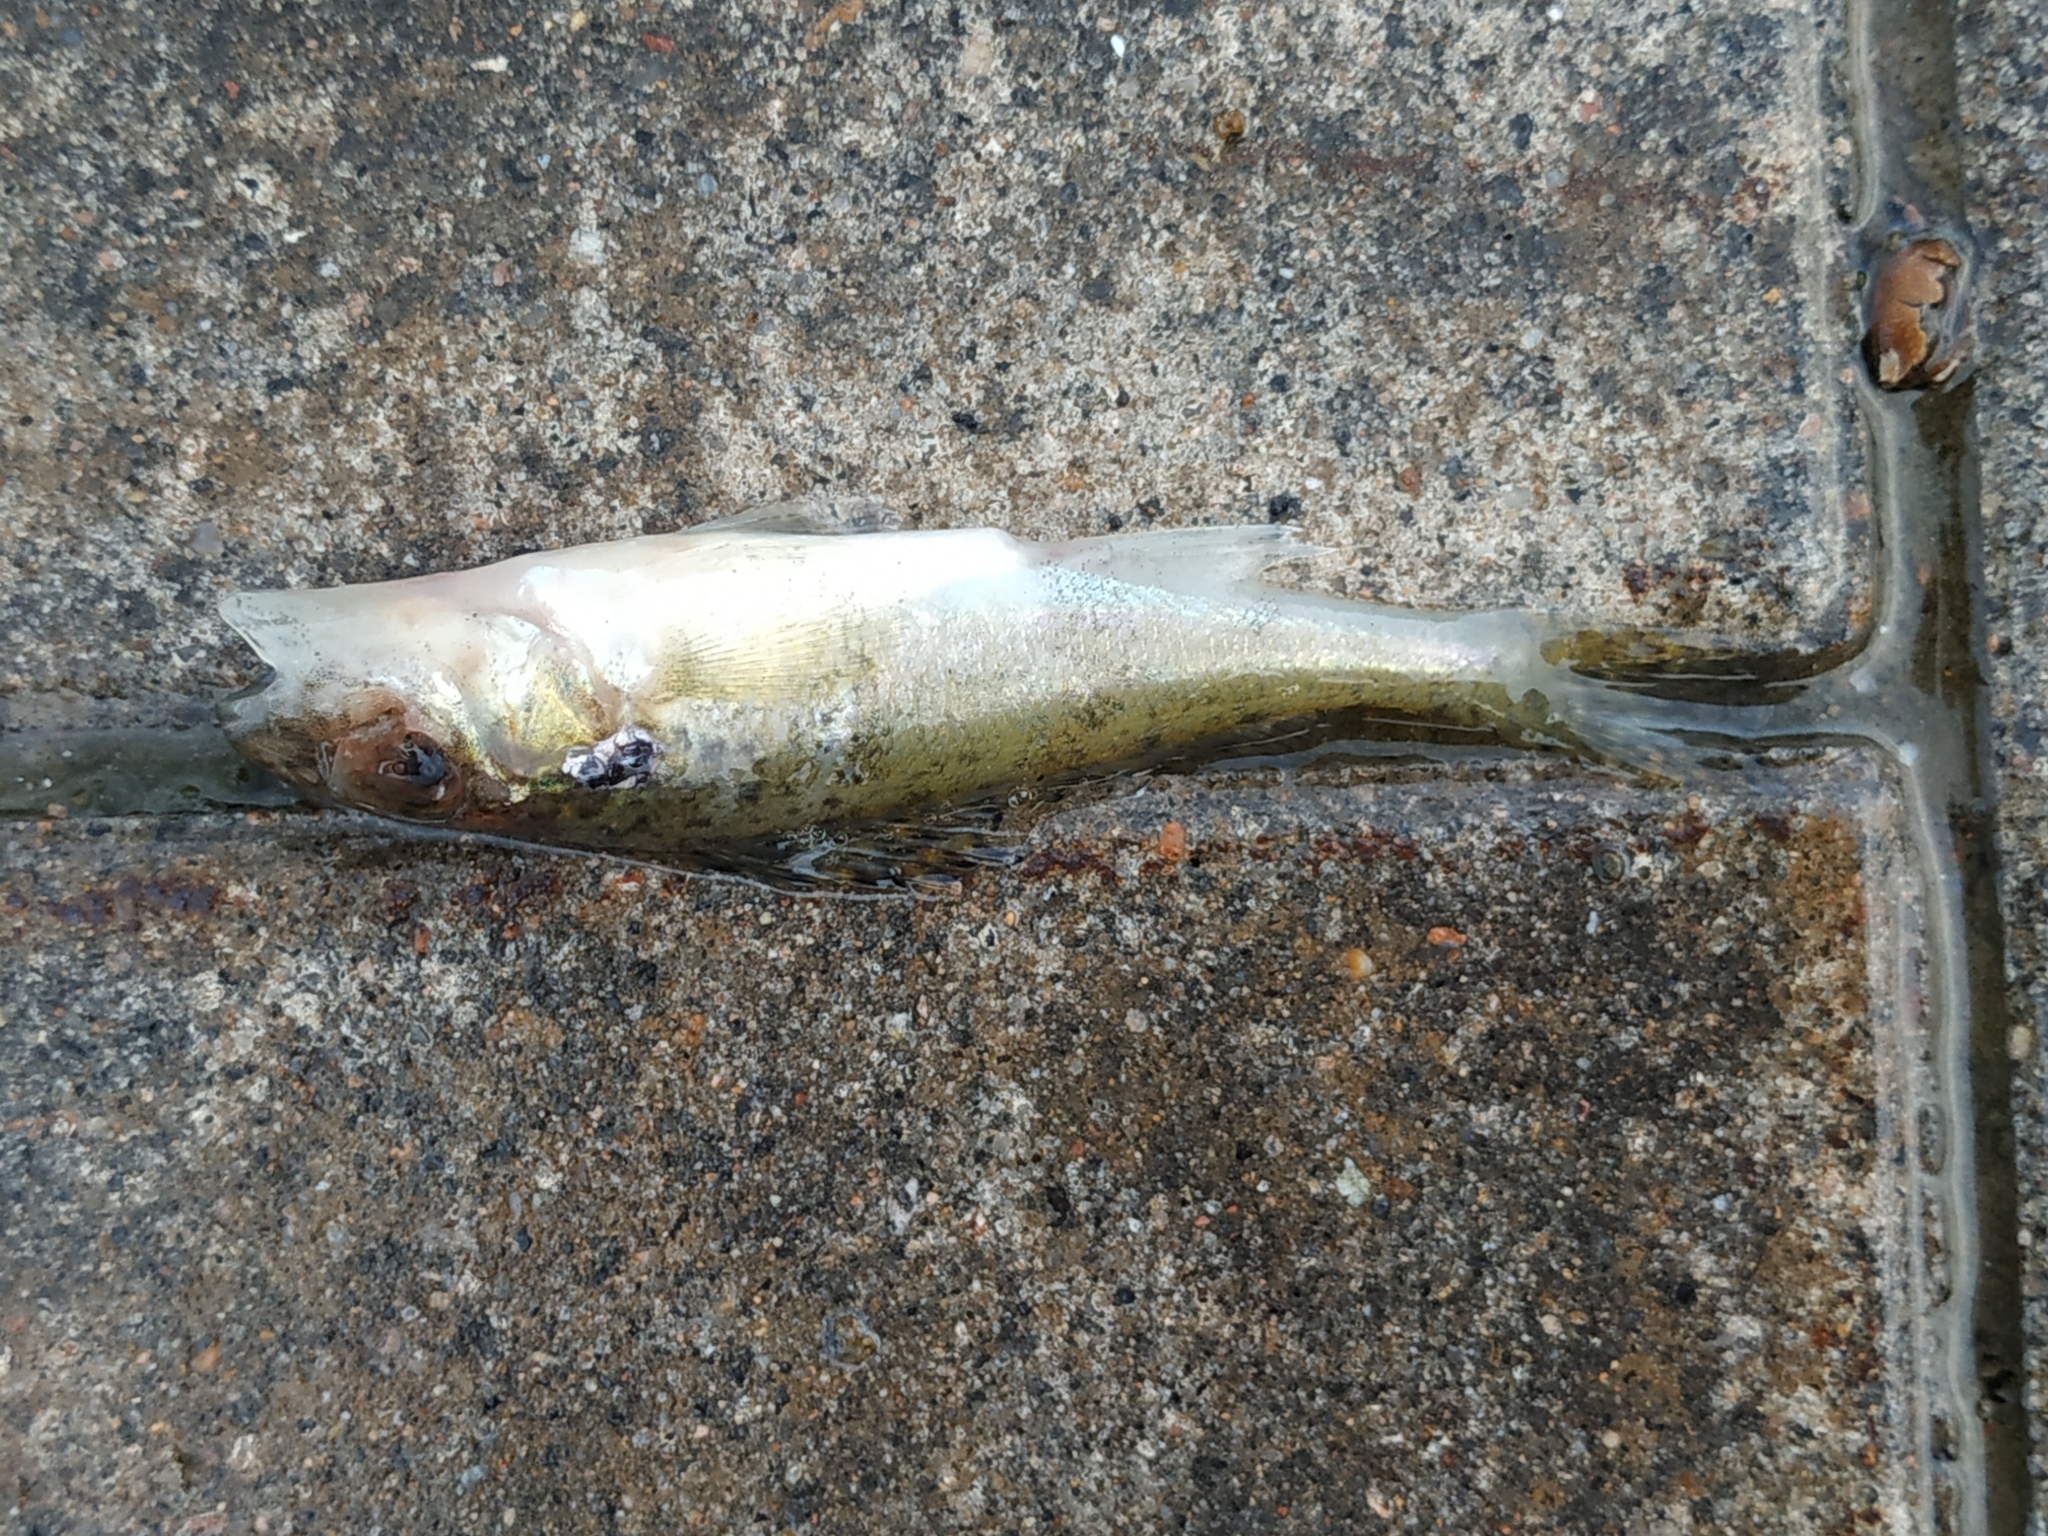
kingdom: Animalia
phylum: Chordata
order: Perciformes
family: Percidae
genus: Gymnocephalus
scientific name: Gymnocephalus cernua
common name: Ruffe
